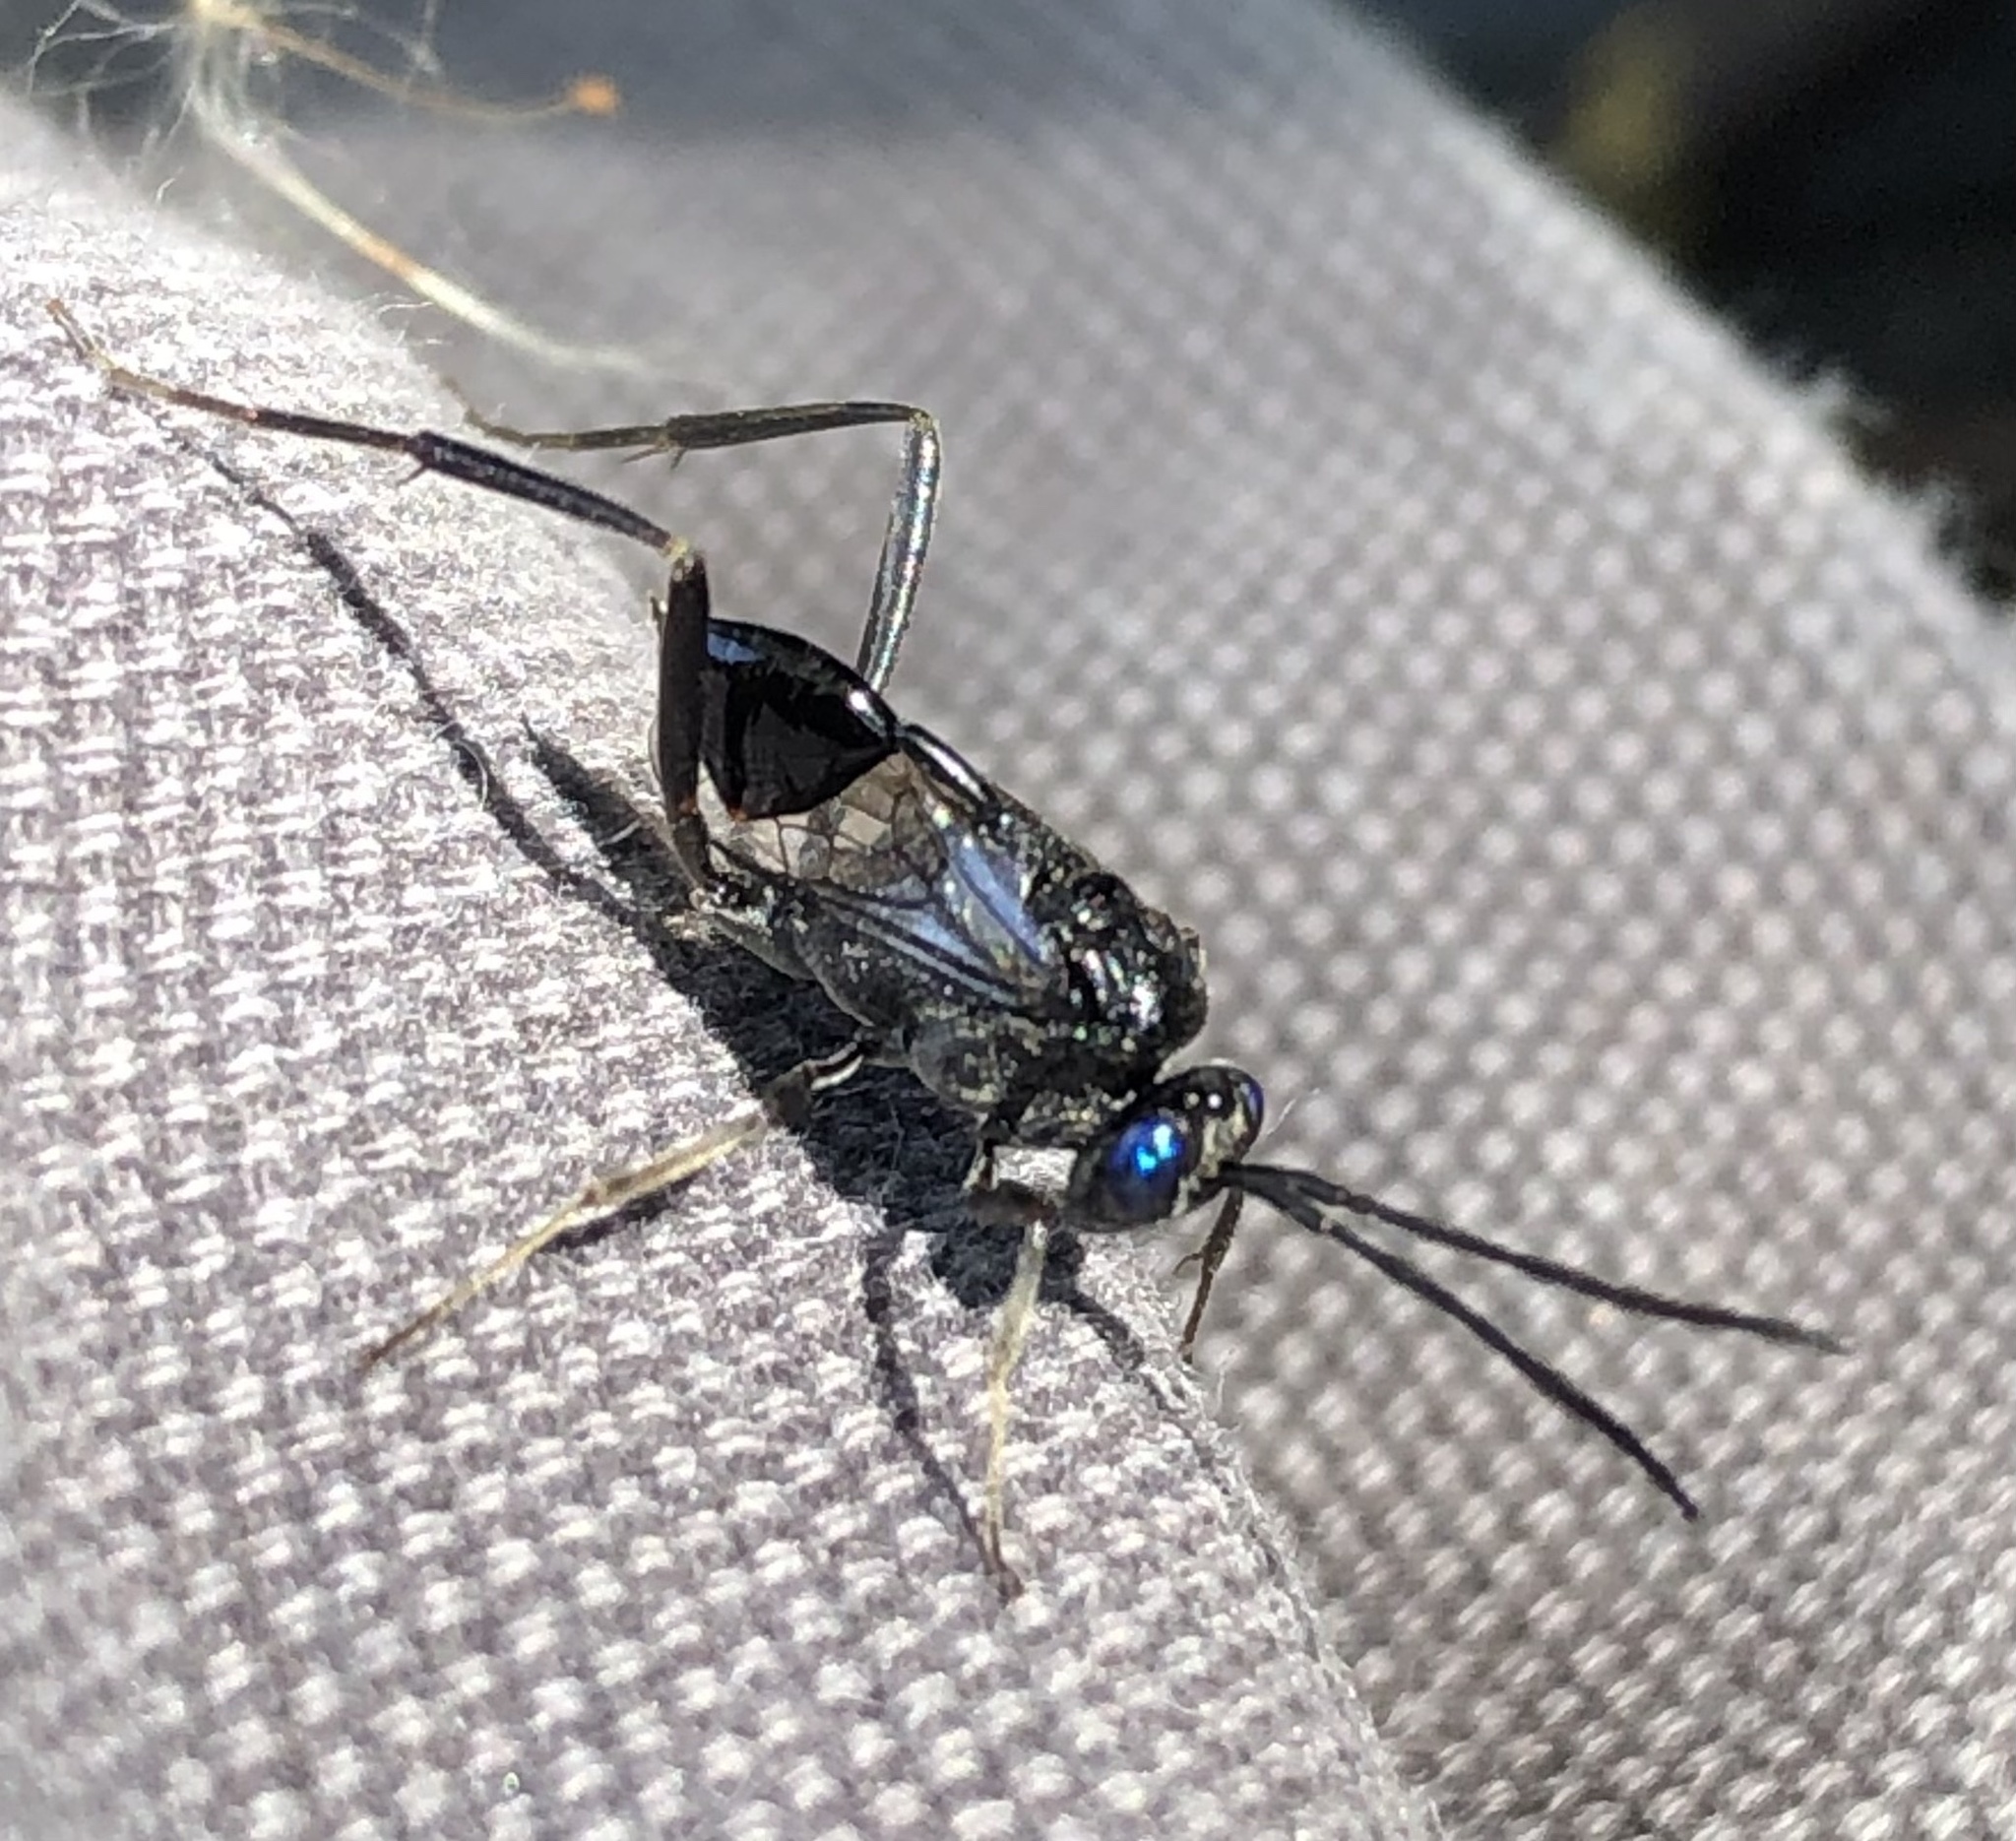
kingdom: Animalia
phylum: Arthropoda
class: Insecta
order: Hymenoptera
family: Evaniidae
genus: Evania
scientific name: Evania appendigaster
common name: Ensign wasp
